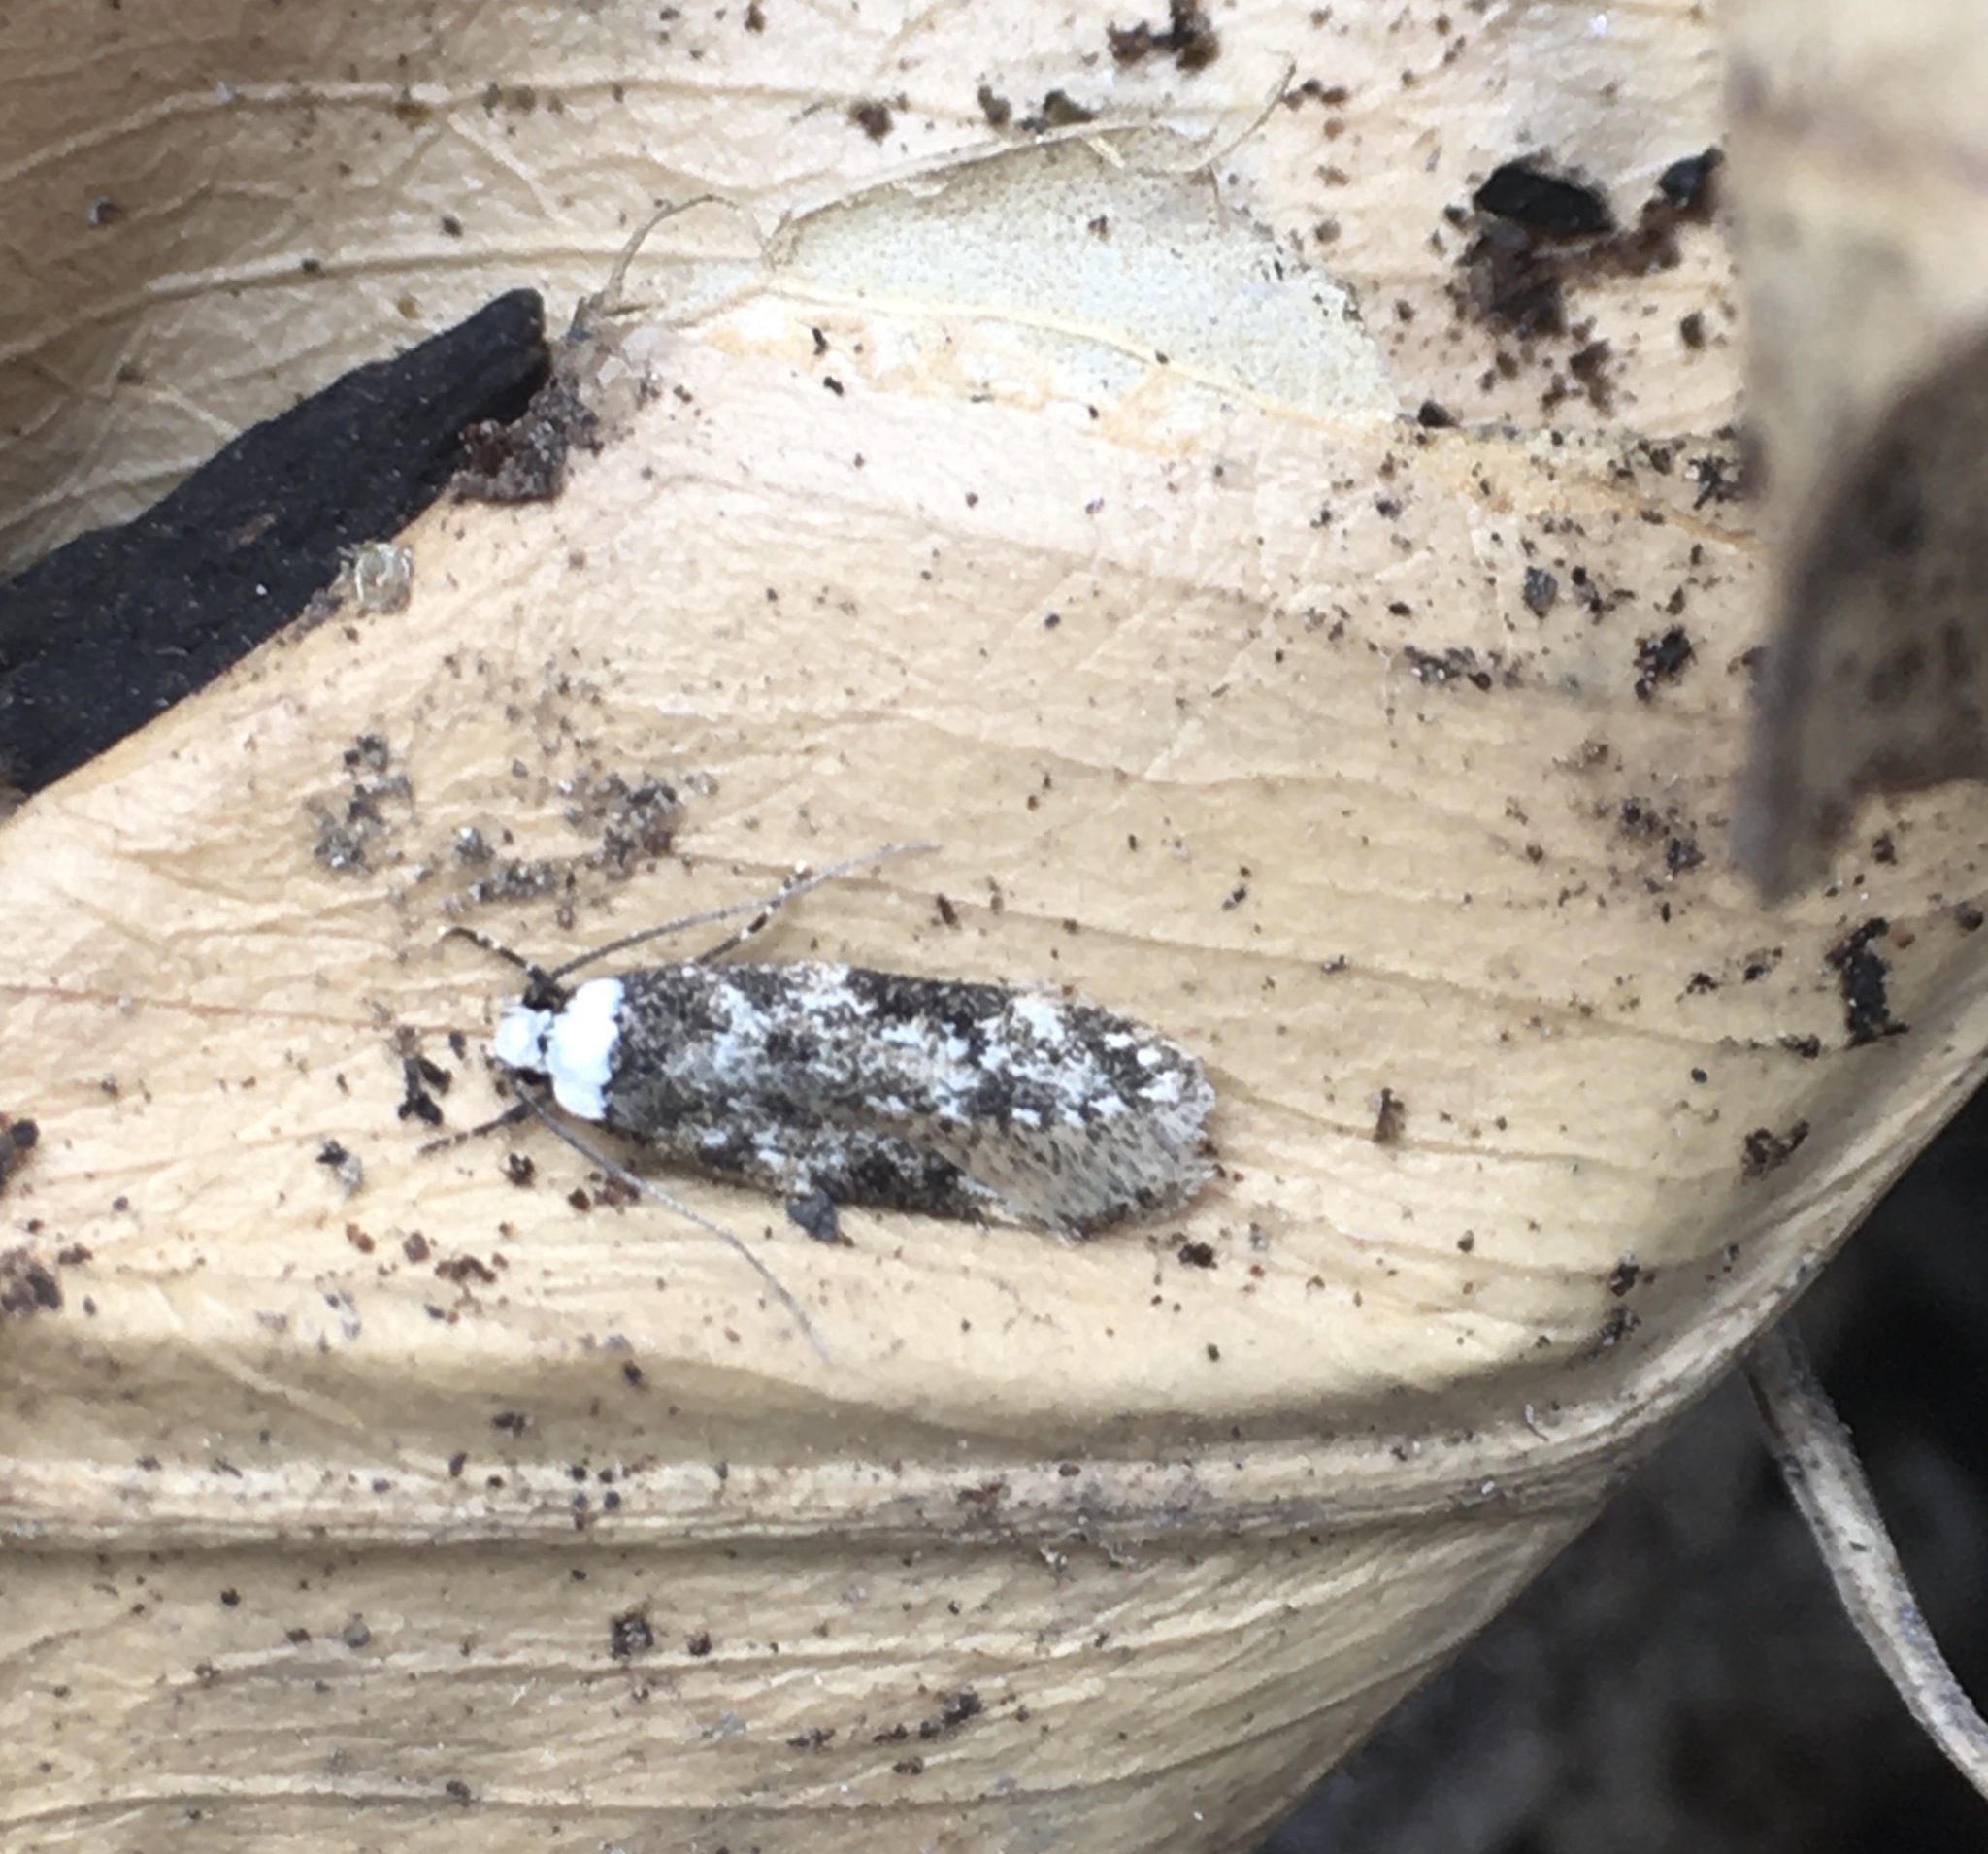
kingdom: Animalia
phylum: Arthropoda
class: Insecta
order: Lepidoptera
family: Oecophoridae
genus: Endrosis
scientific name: Endrosis sarcitrella
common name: White-shouldered house moth
